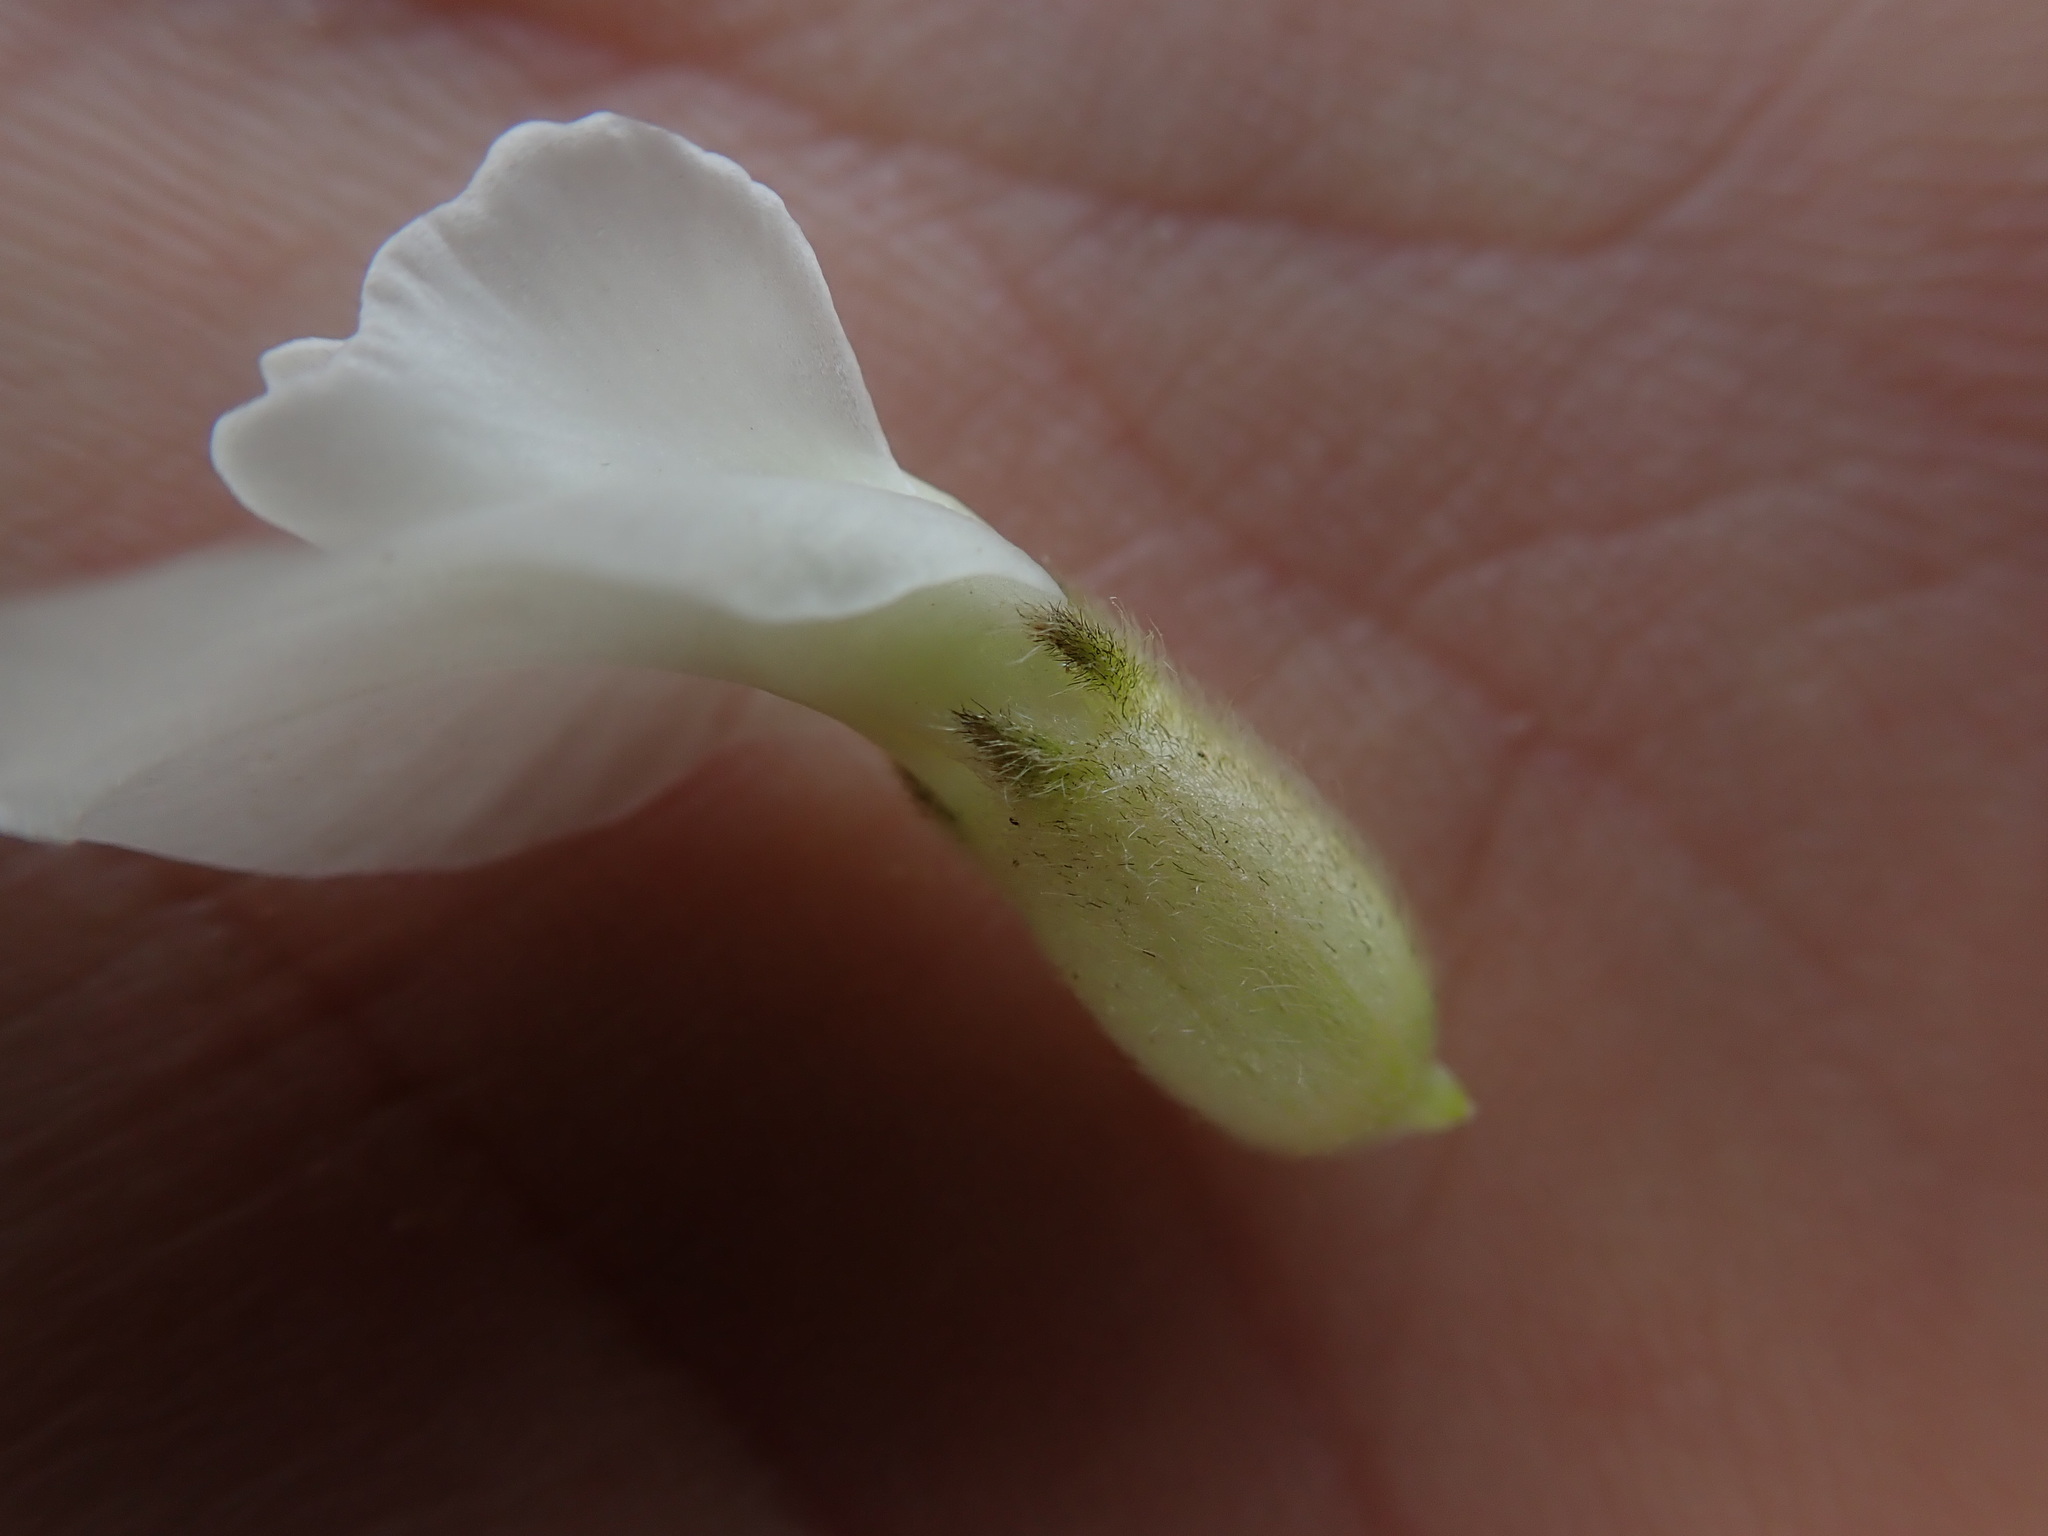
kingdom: Plantae
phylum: Tracheophyta
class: Magnoliopsida
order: Fabales
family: Fabaceae
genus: Oxytropis
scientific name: Oxytropis sericea
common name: Silky locoweed
